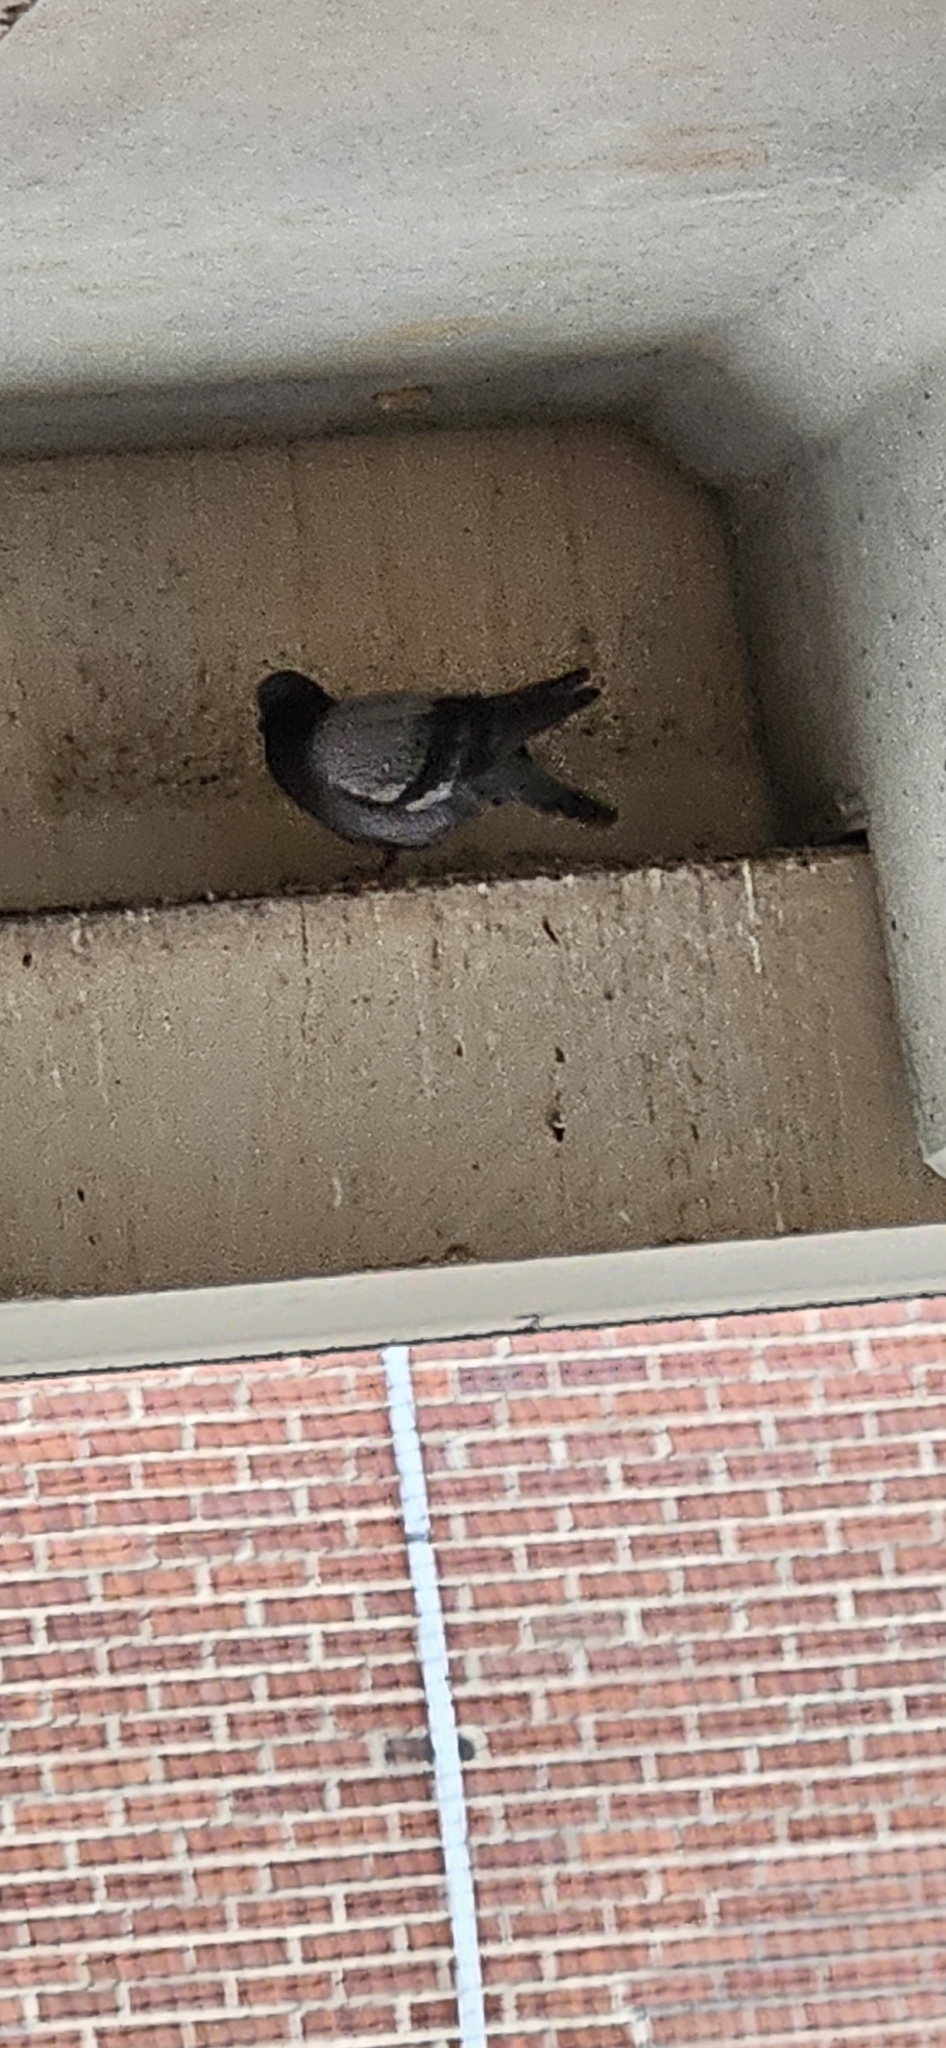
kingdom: Animalia
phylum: Chordata
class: Aves
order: Columbiformes
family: Columbidae
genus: Columba
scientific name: Columba livia
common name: Rock pigeon
